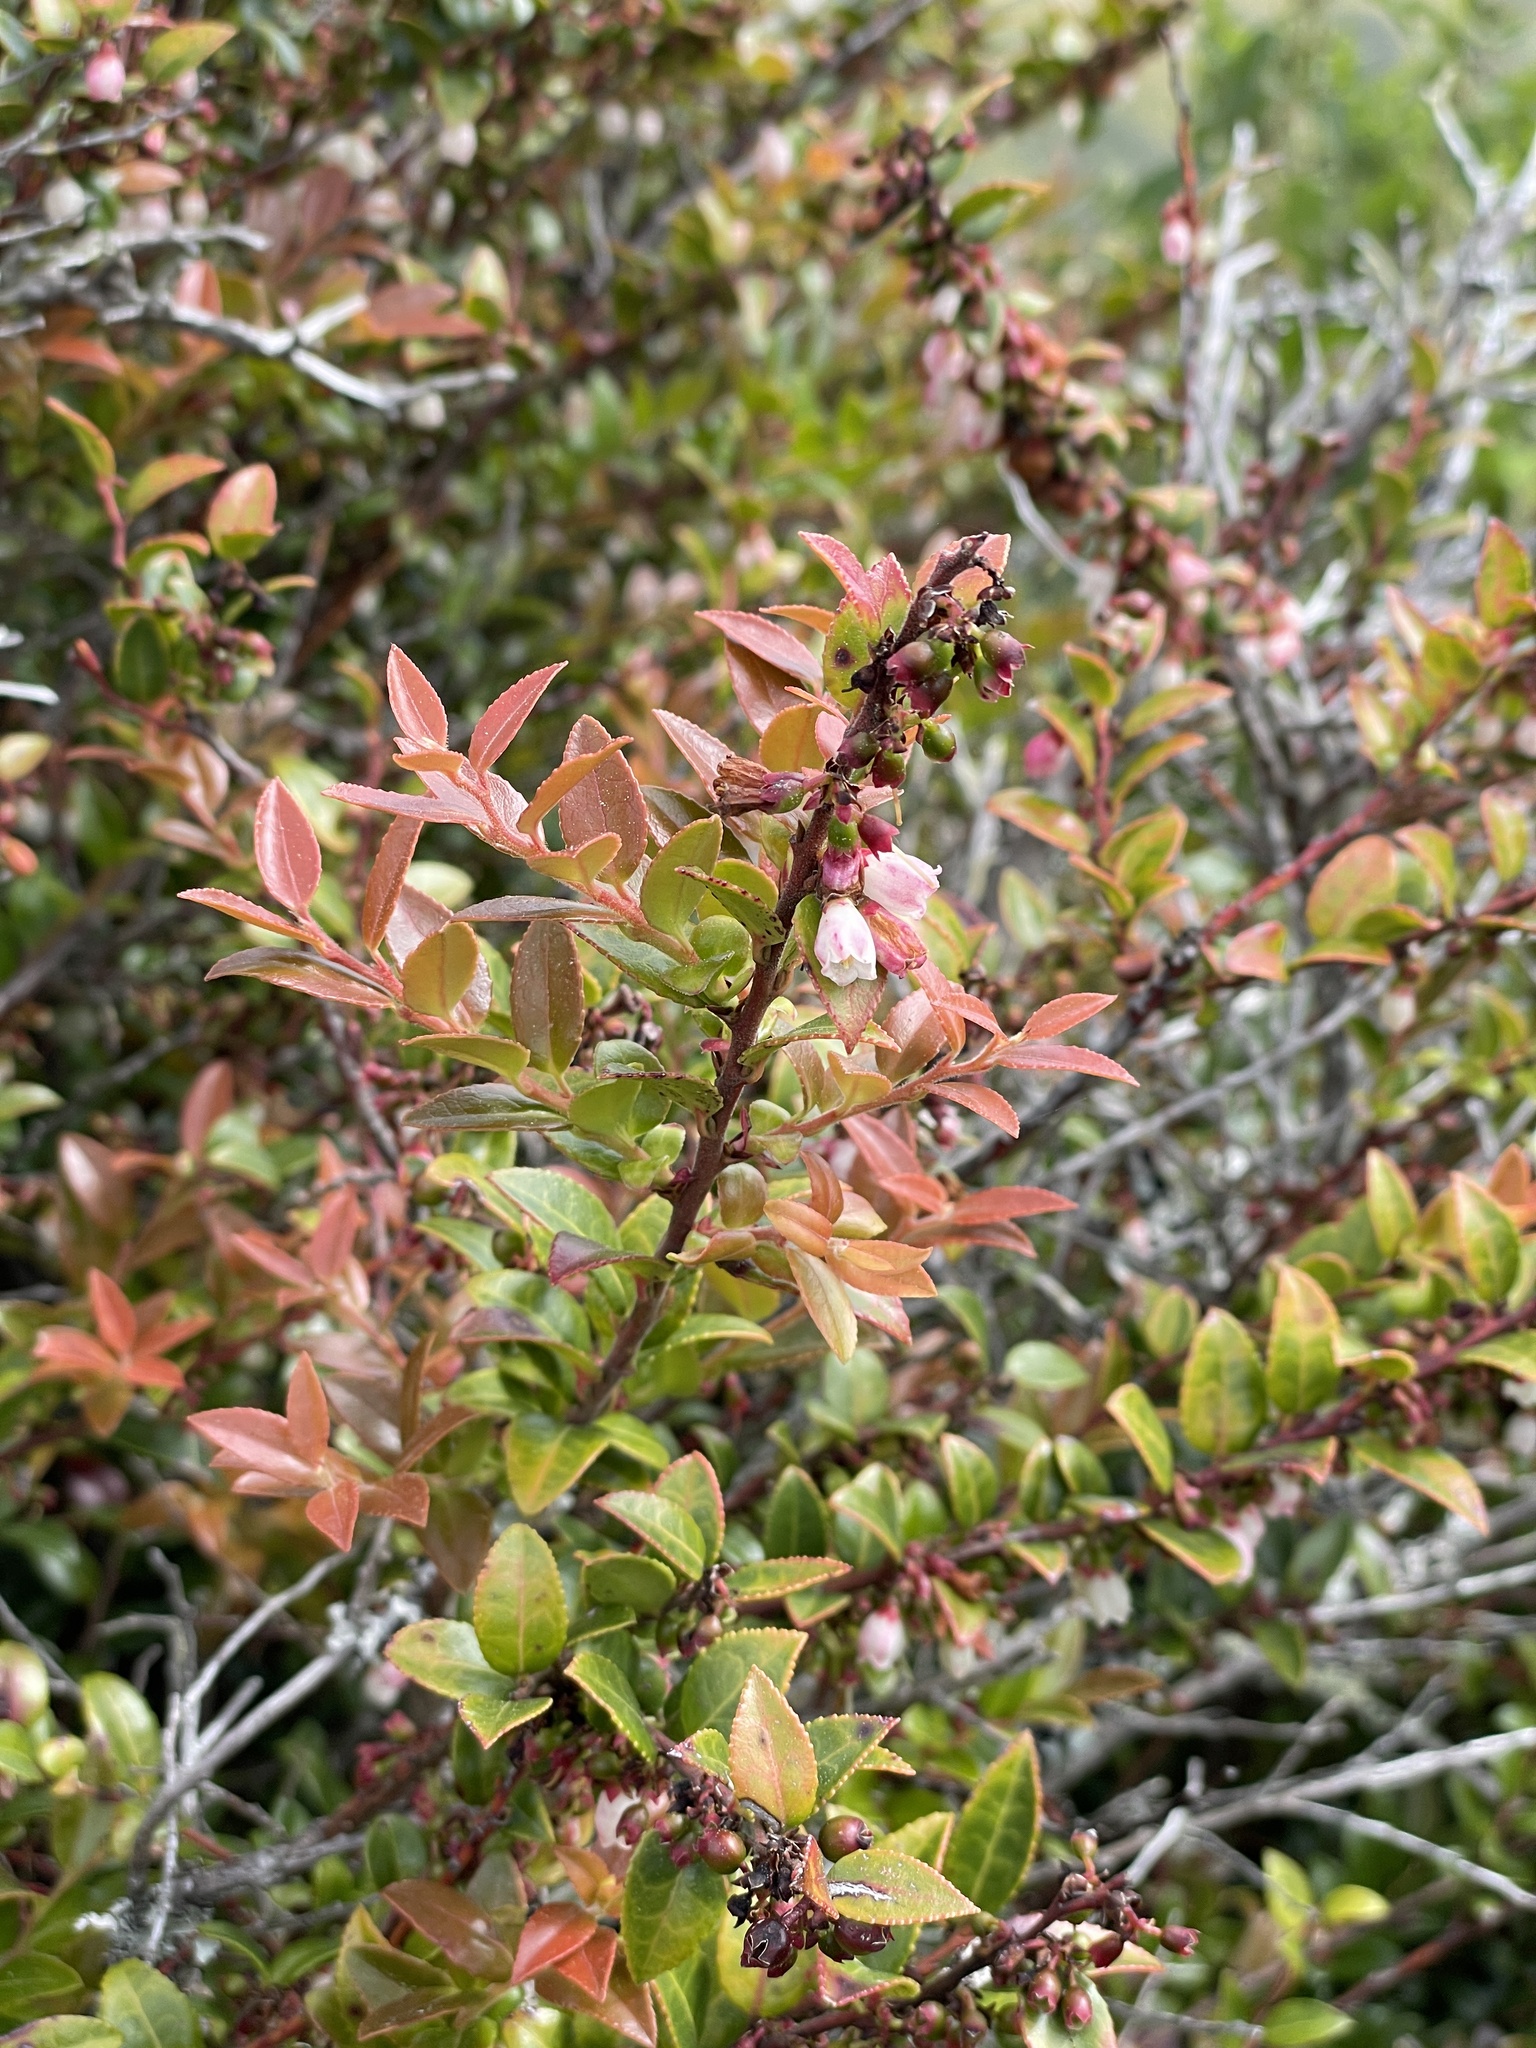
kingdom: Plantae
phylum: Tracheophyta
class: Magnoliopsida
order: Ericales
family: Ericaceae
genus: Vaccinium
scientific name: Vaccinium ovatum
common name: California-huckleberry
